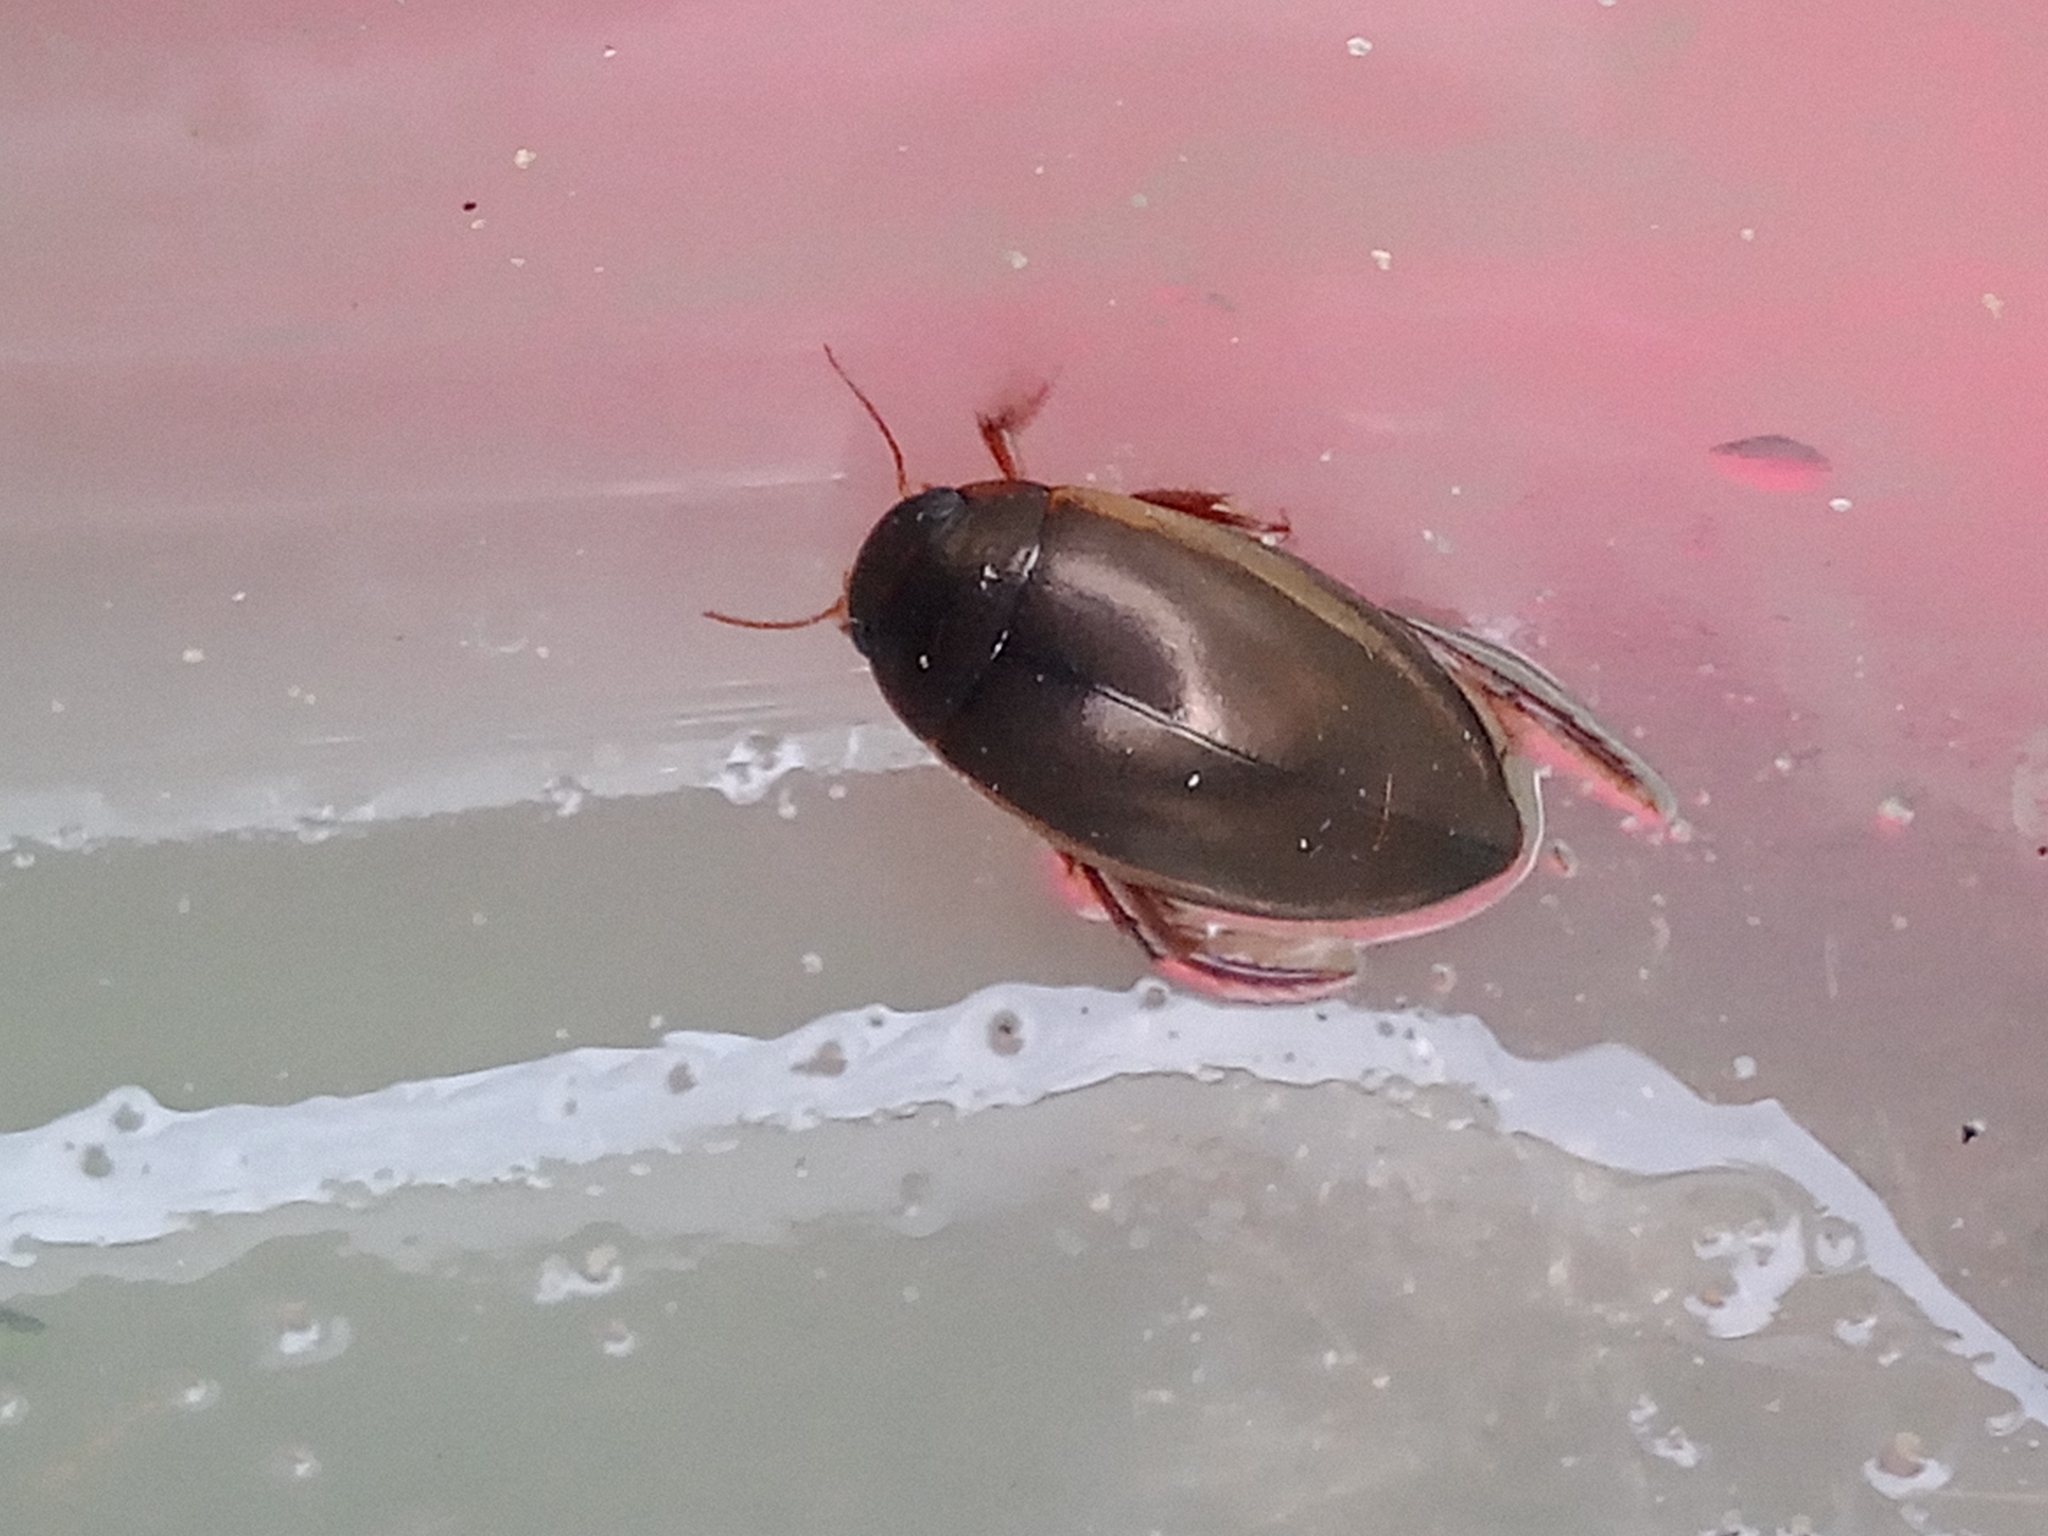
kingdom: Animalia
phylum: Arthropoda
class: Insecta
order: Coleoptera
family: Dytiscidae
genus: Ilybius
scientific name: Ilybius fuliginosus
